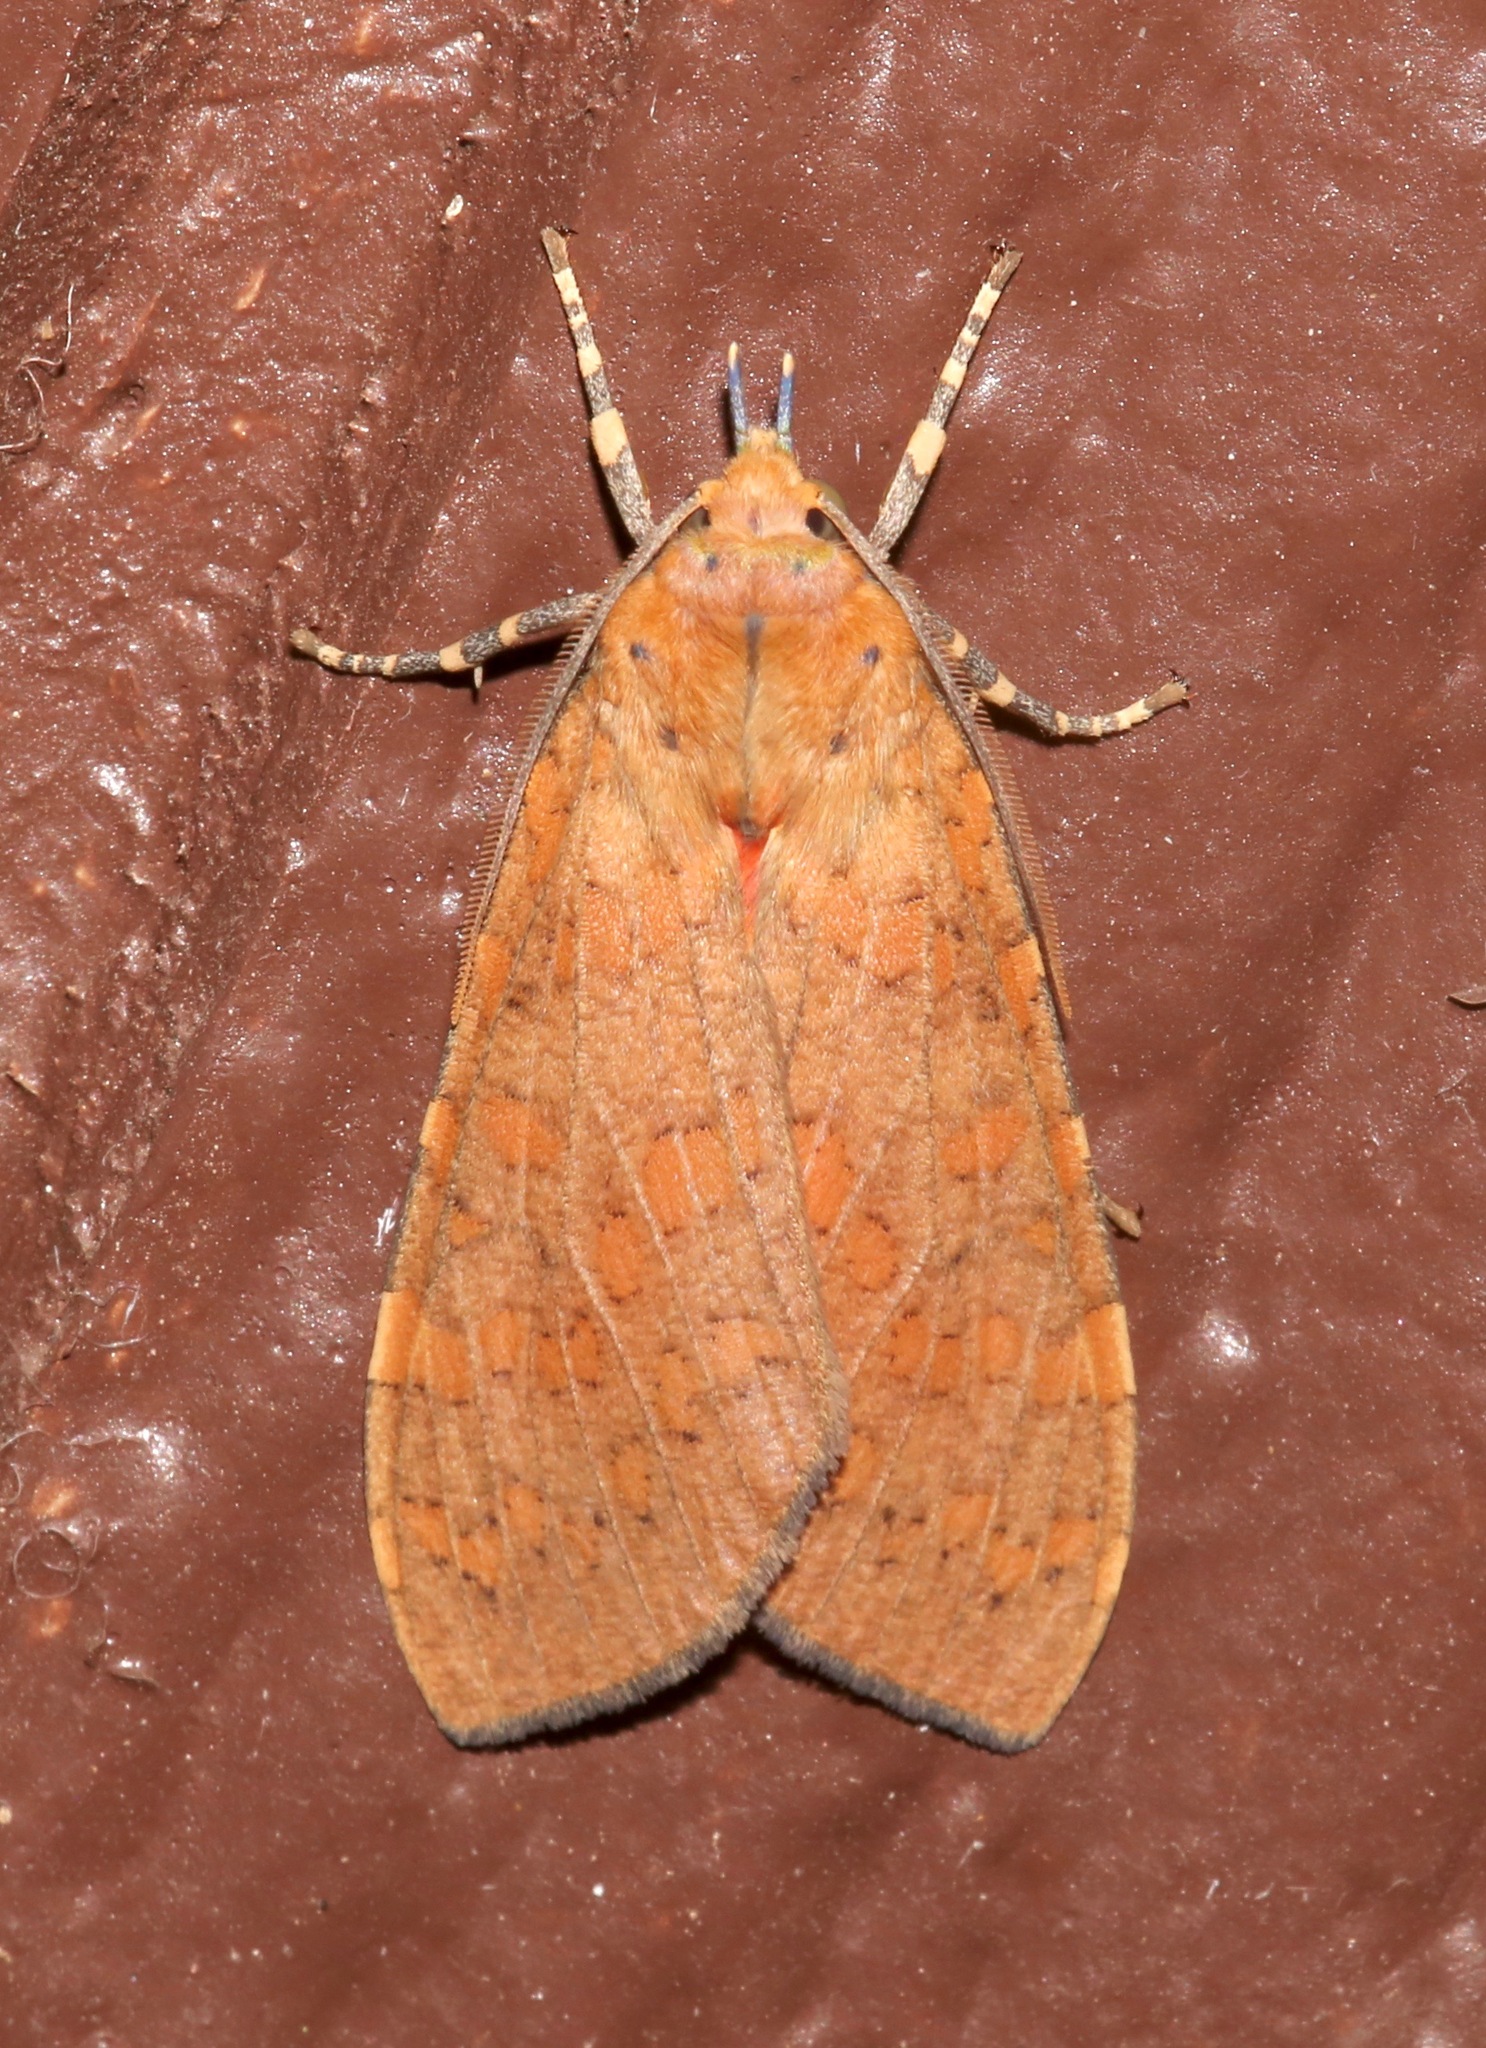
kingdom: Animalia
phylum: Arthropoda
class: Insecta
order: Lepidoptera
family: Erebidae
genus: Apocrisias
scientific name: Apocrisias thaumasta
